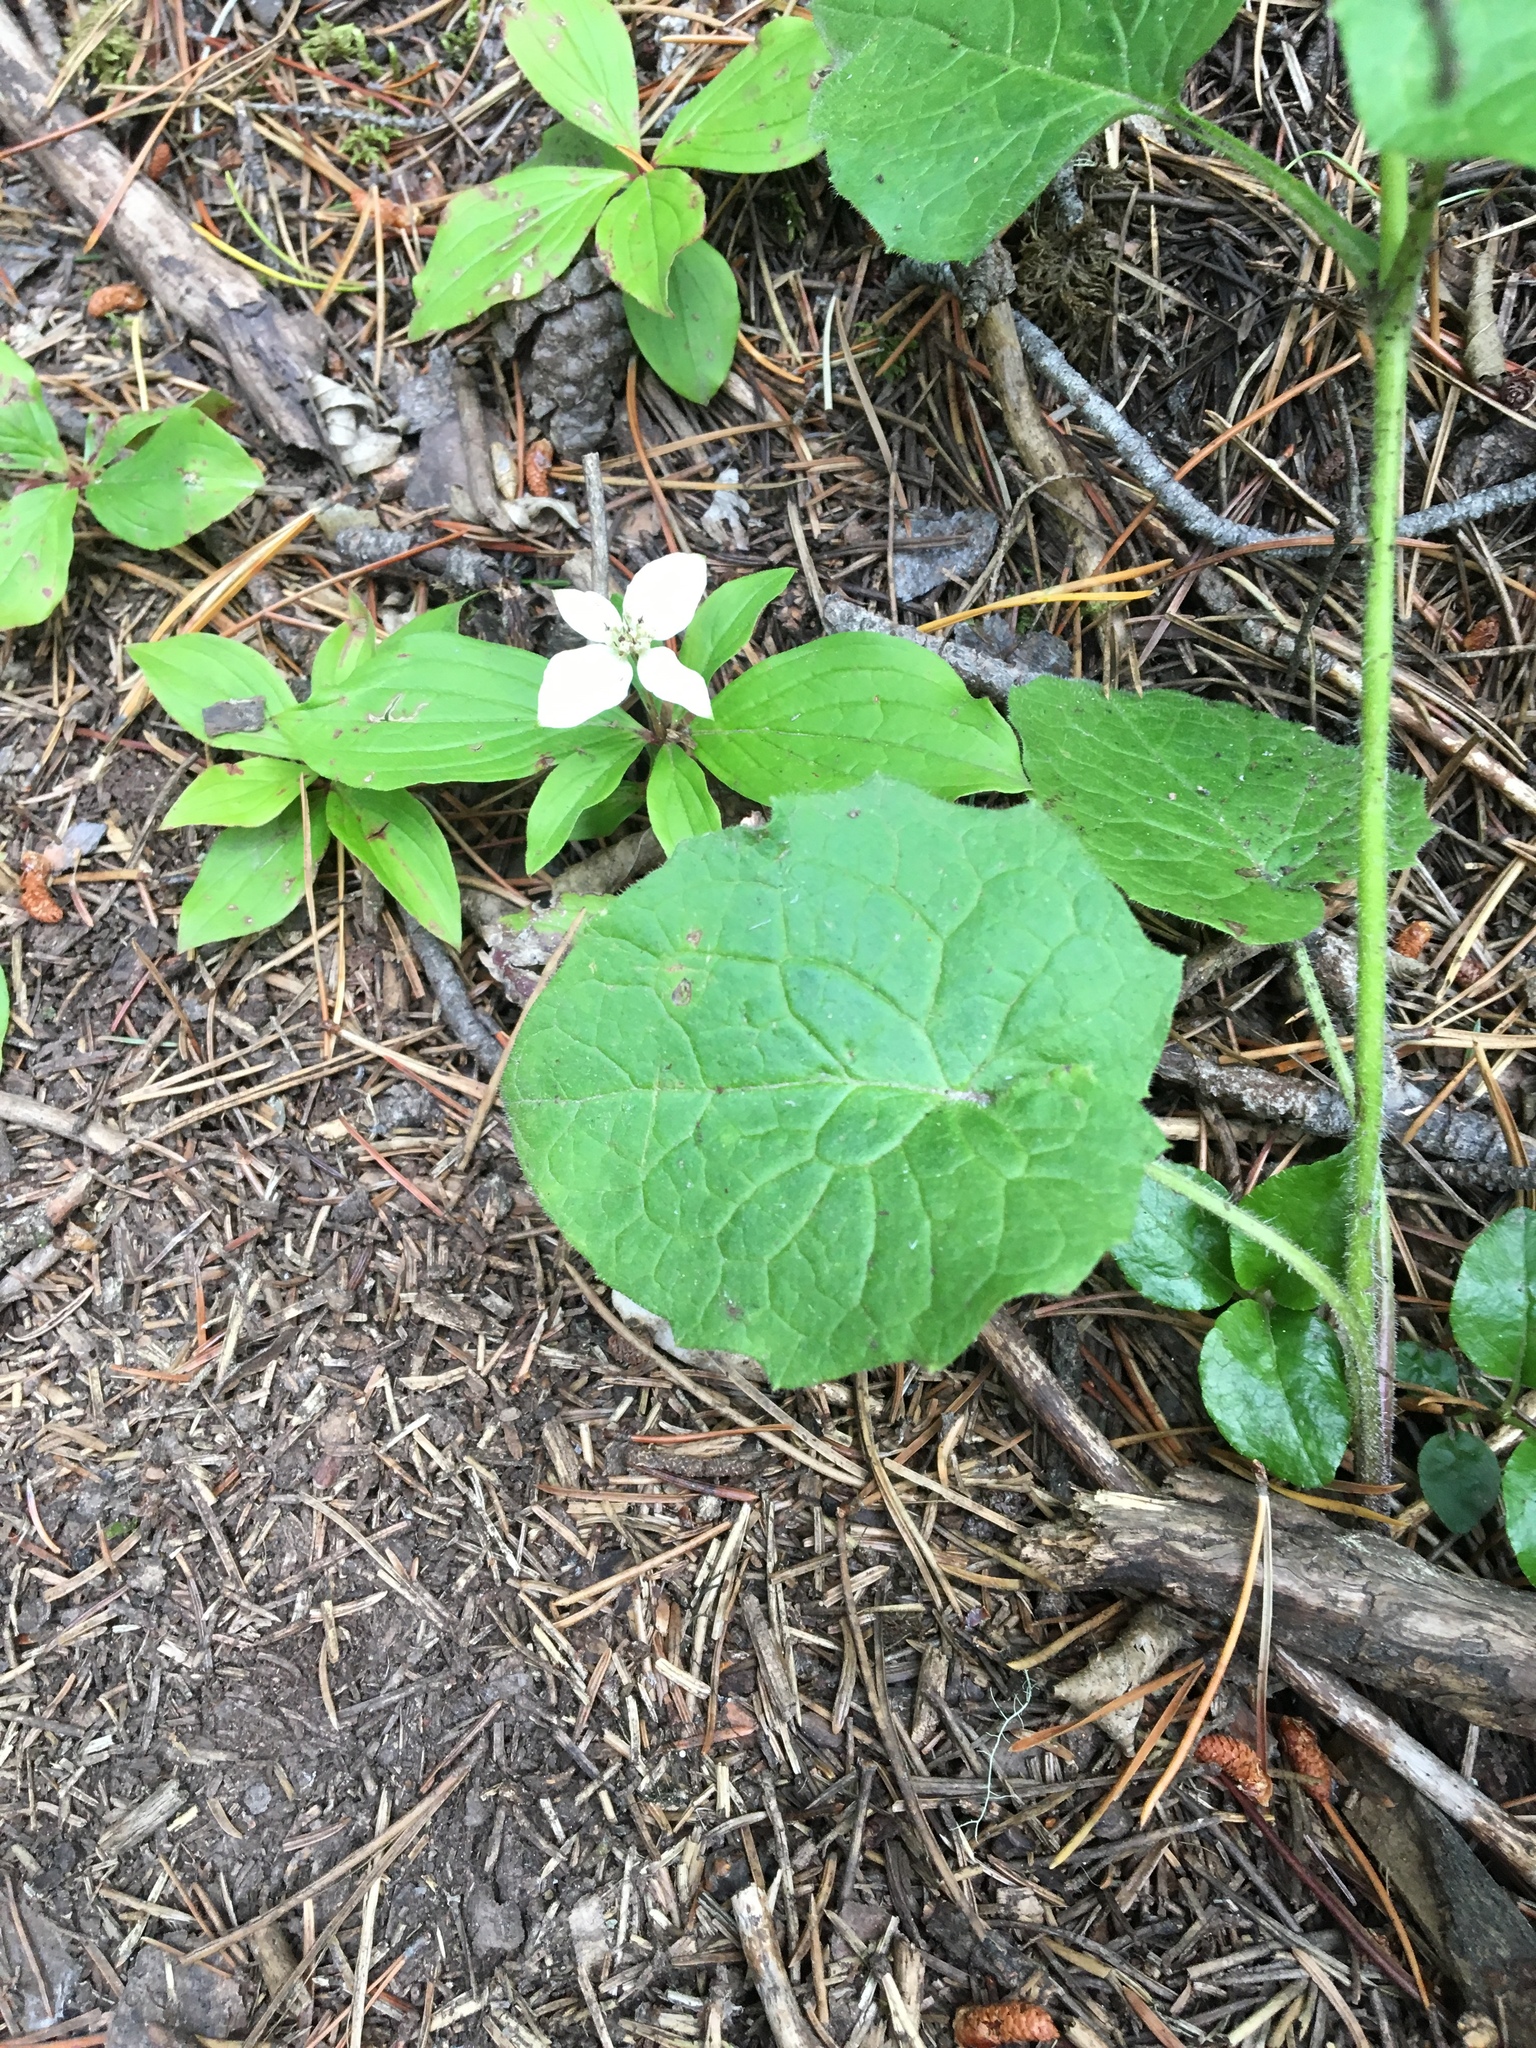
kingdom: Plantae
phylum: Tracheophyta
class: Magnoliopsida
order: Asterales
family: Asteraceae
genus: Arnica
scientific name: Arnica cordifolia
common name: Heart-leaf arnica
